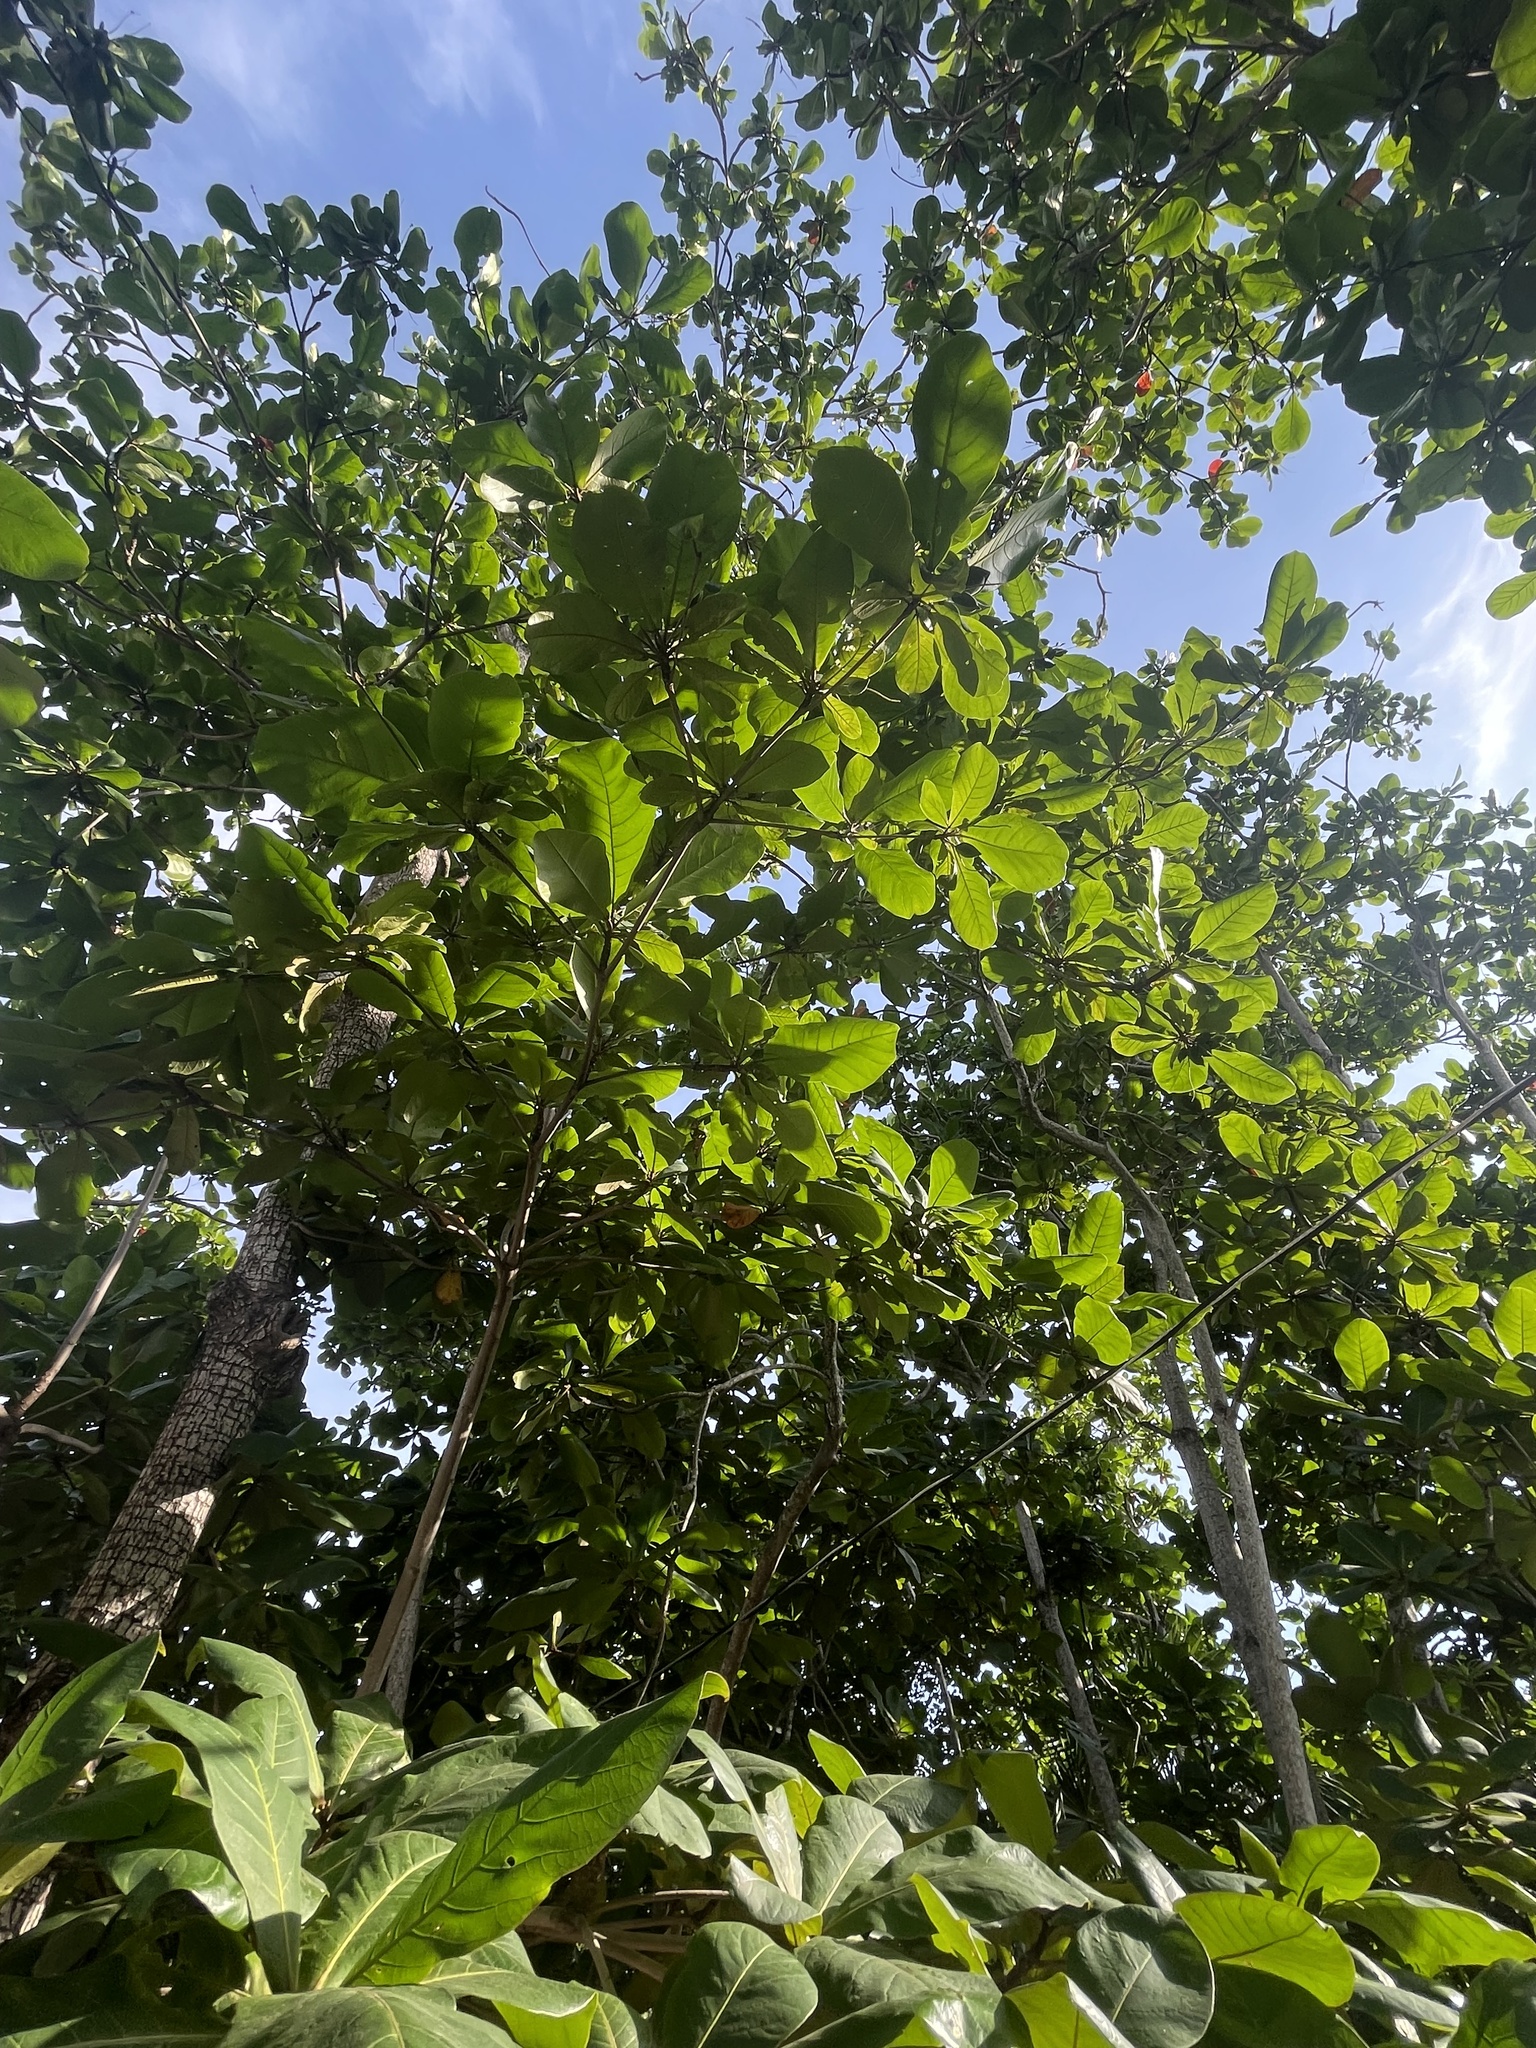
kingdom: Plantae
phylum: Tracheophyta
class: Magnoliopsida
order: Myrtales
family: Combretaceae
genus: Terminalia
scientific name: Terminalia catappa
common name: Tropical almond
